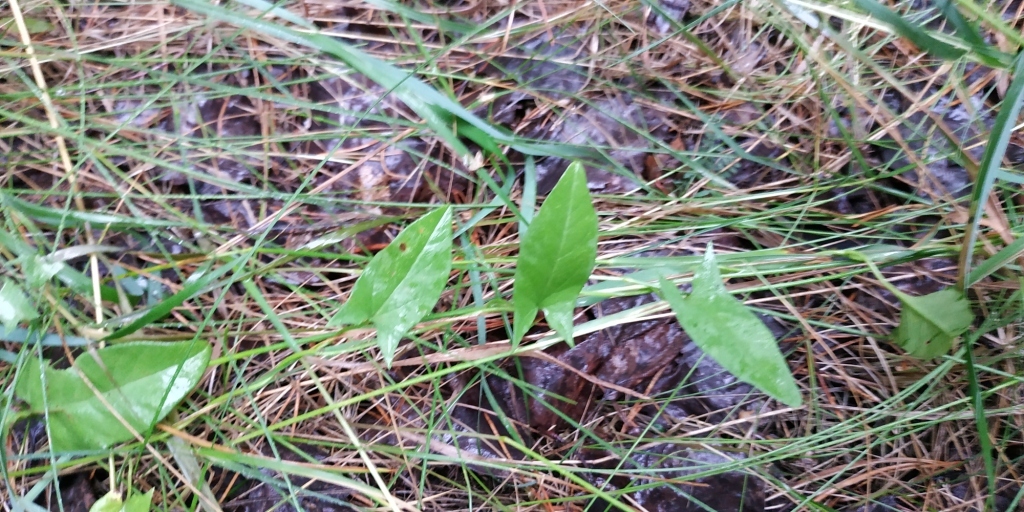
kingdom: Plantae
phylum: Tracheophyta
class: Magnoliopsida
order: Solanales
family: Convolvulaceae
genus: Convolvulus
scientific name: Convolvulus arvensis
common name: Field bindweed
